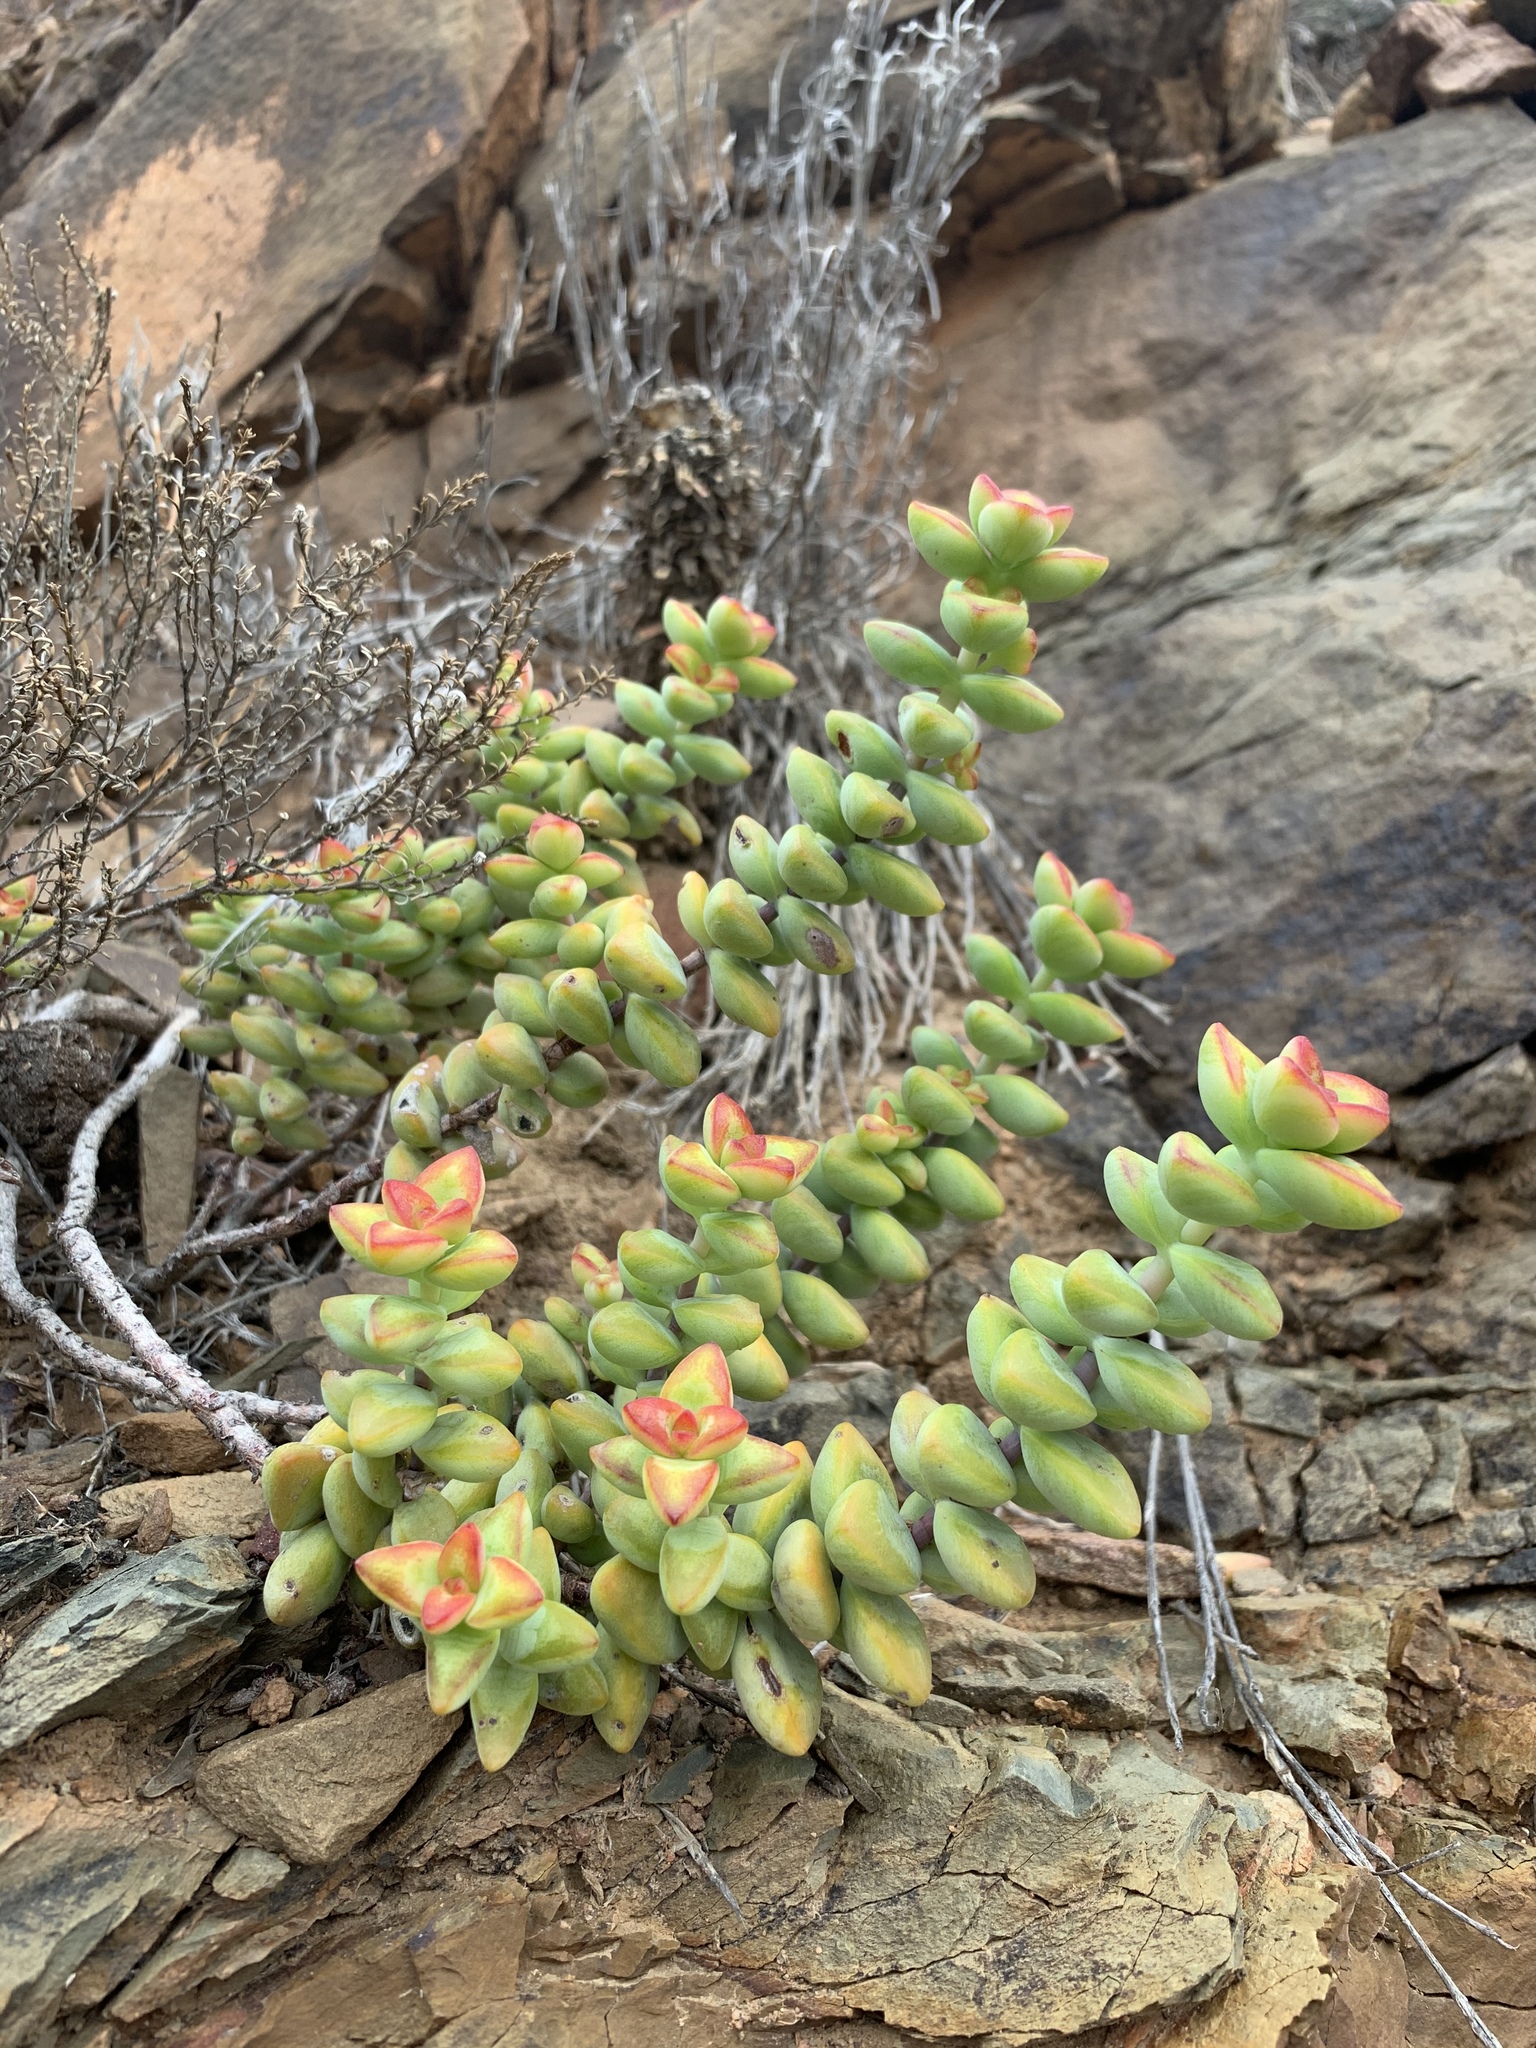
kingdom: Plantae
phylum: Tracheophyta
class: Magnoliopsida
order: Saxifragales
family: Crassulaceae
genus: Crassula
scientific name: Crassula rupestris
